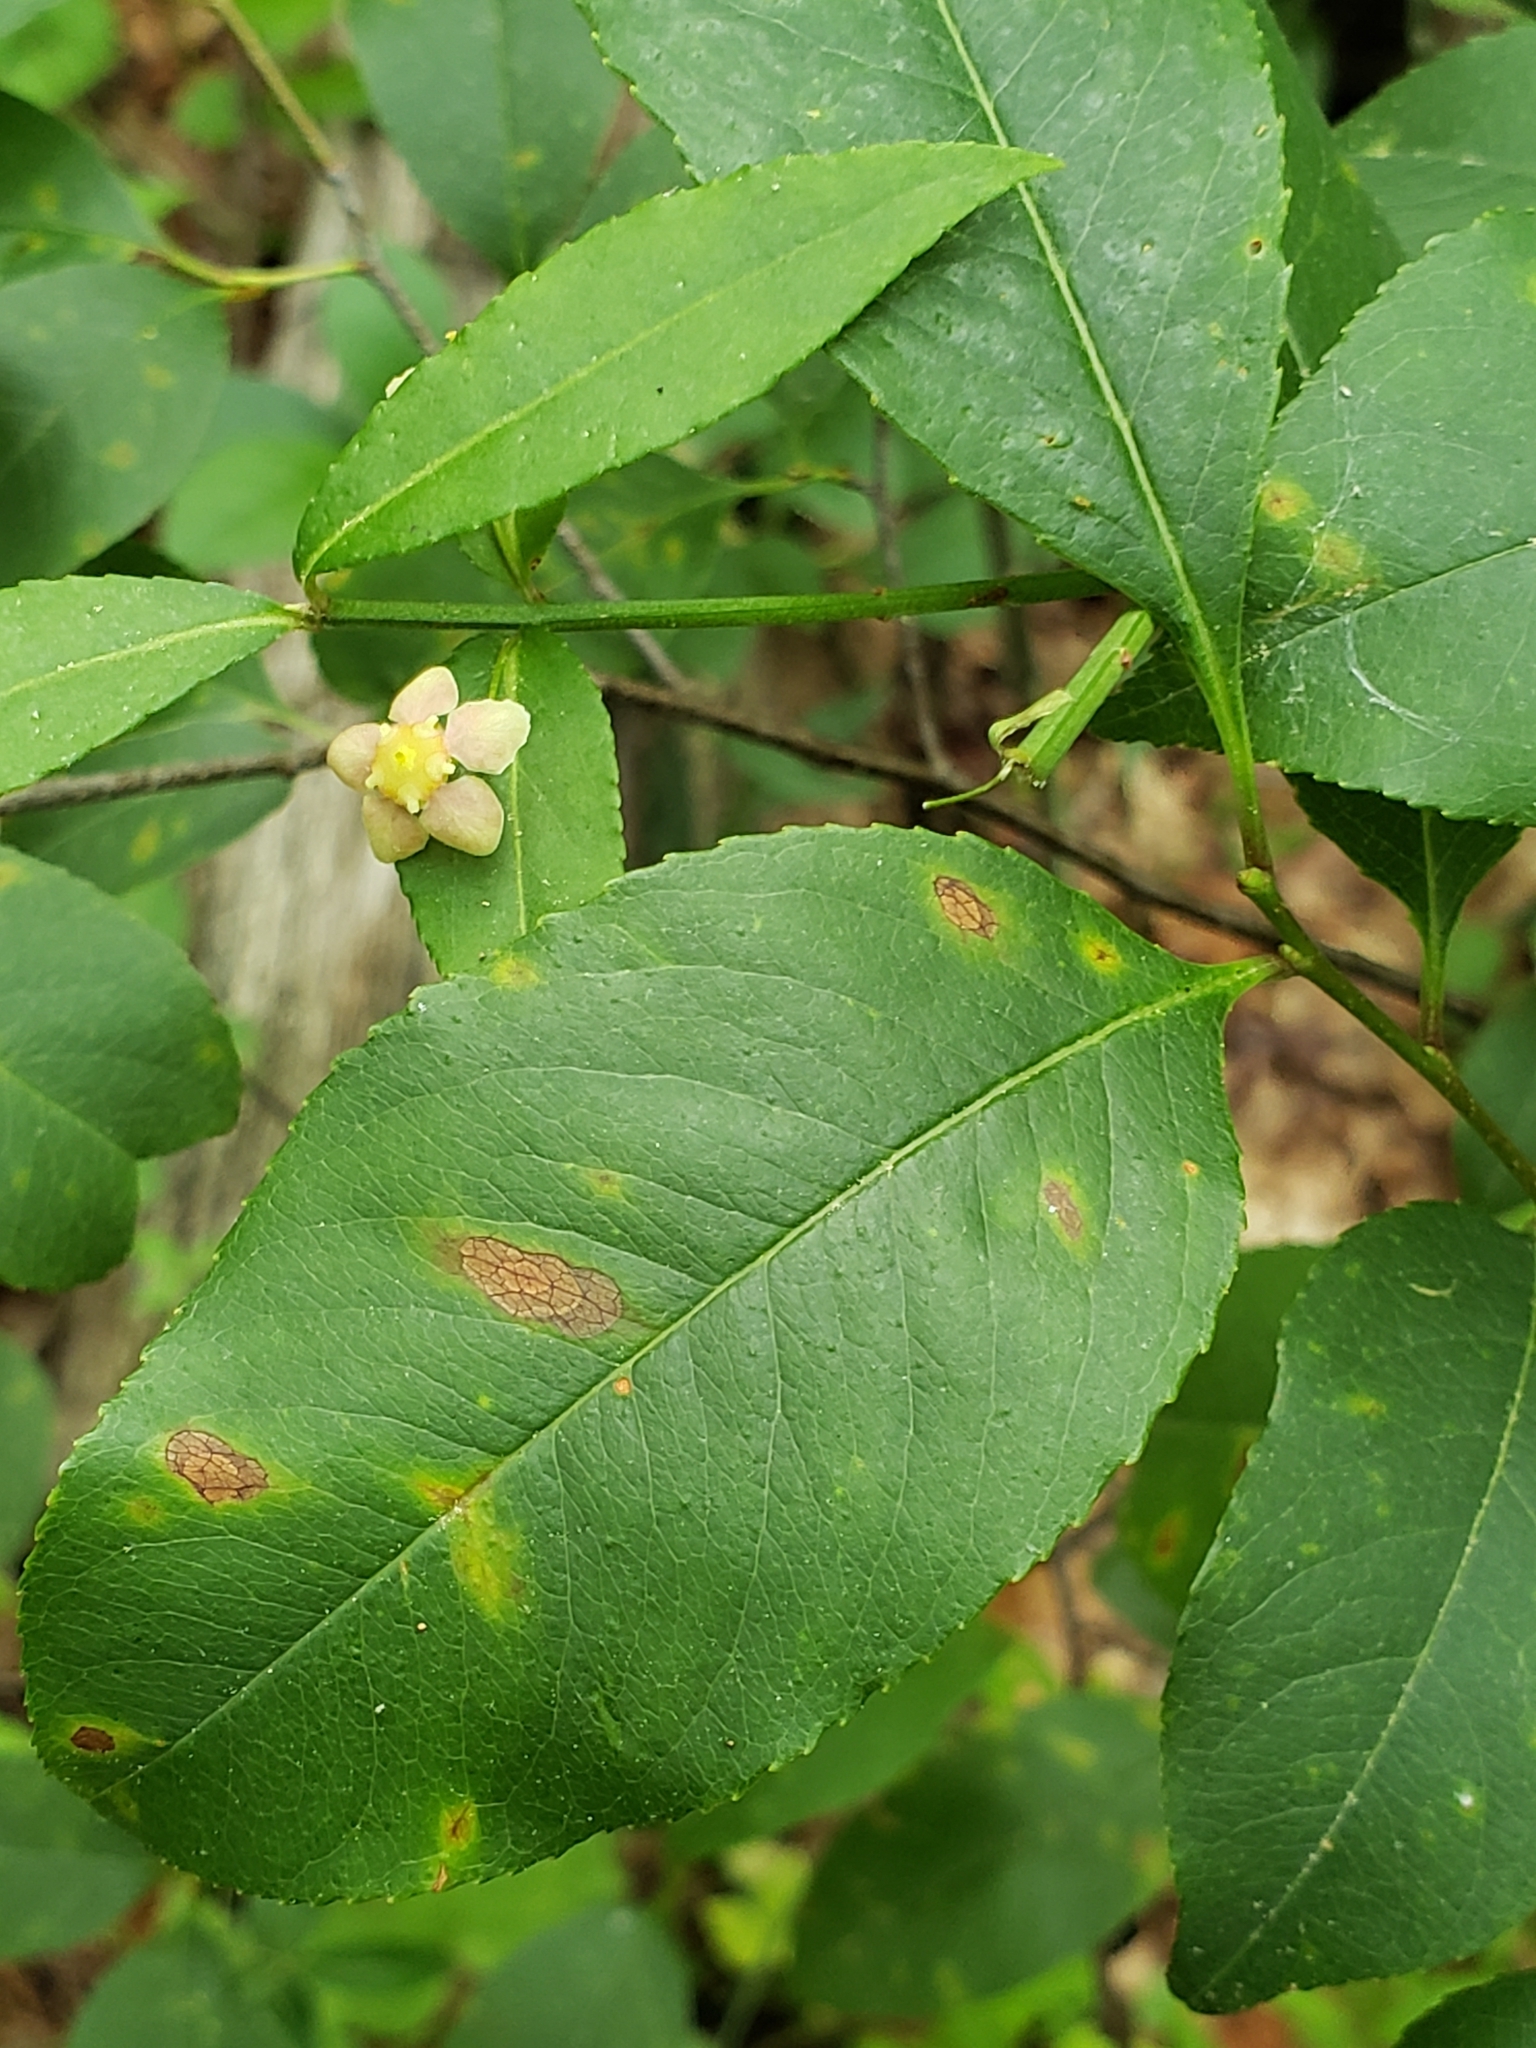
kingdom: Plantae
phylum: Tracheophyta
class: Magnoliopsida
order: Celastrales
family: Celastraceae
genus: Euonymus
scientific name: Euonymus americanus
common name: Bursting-heart
